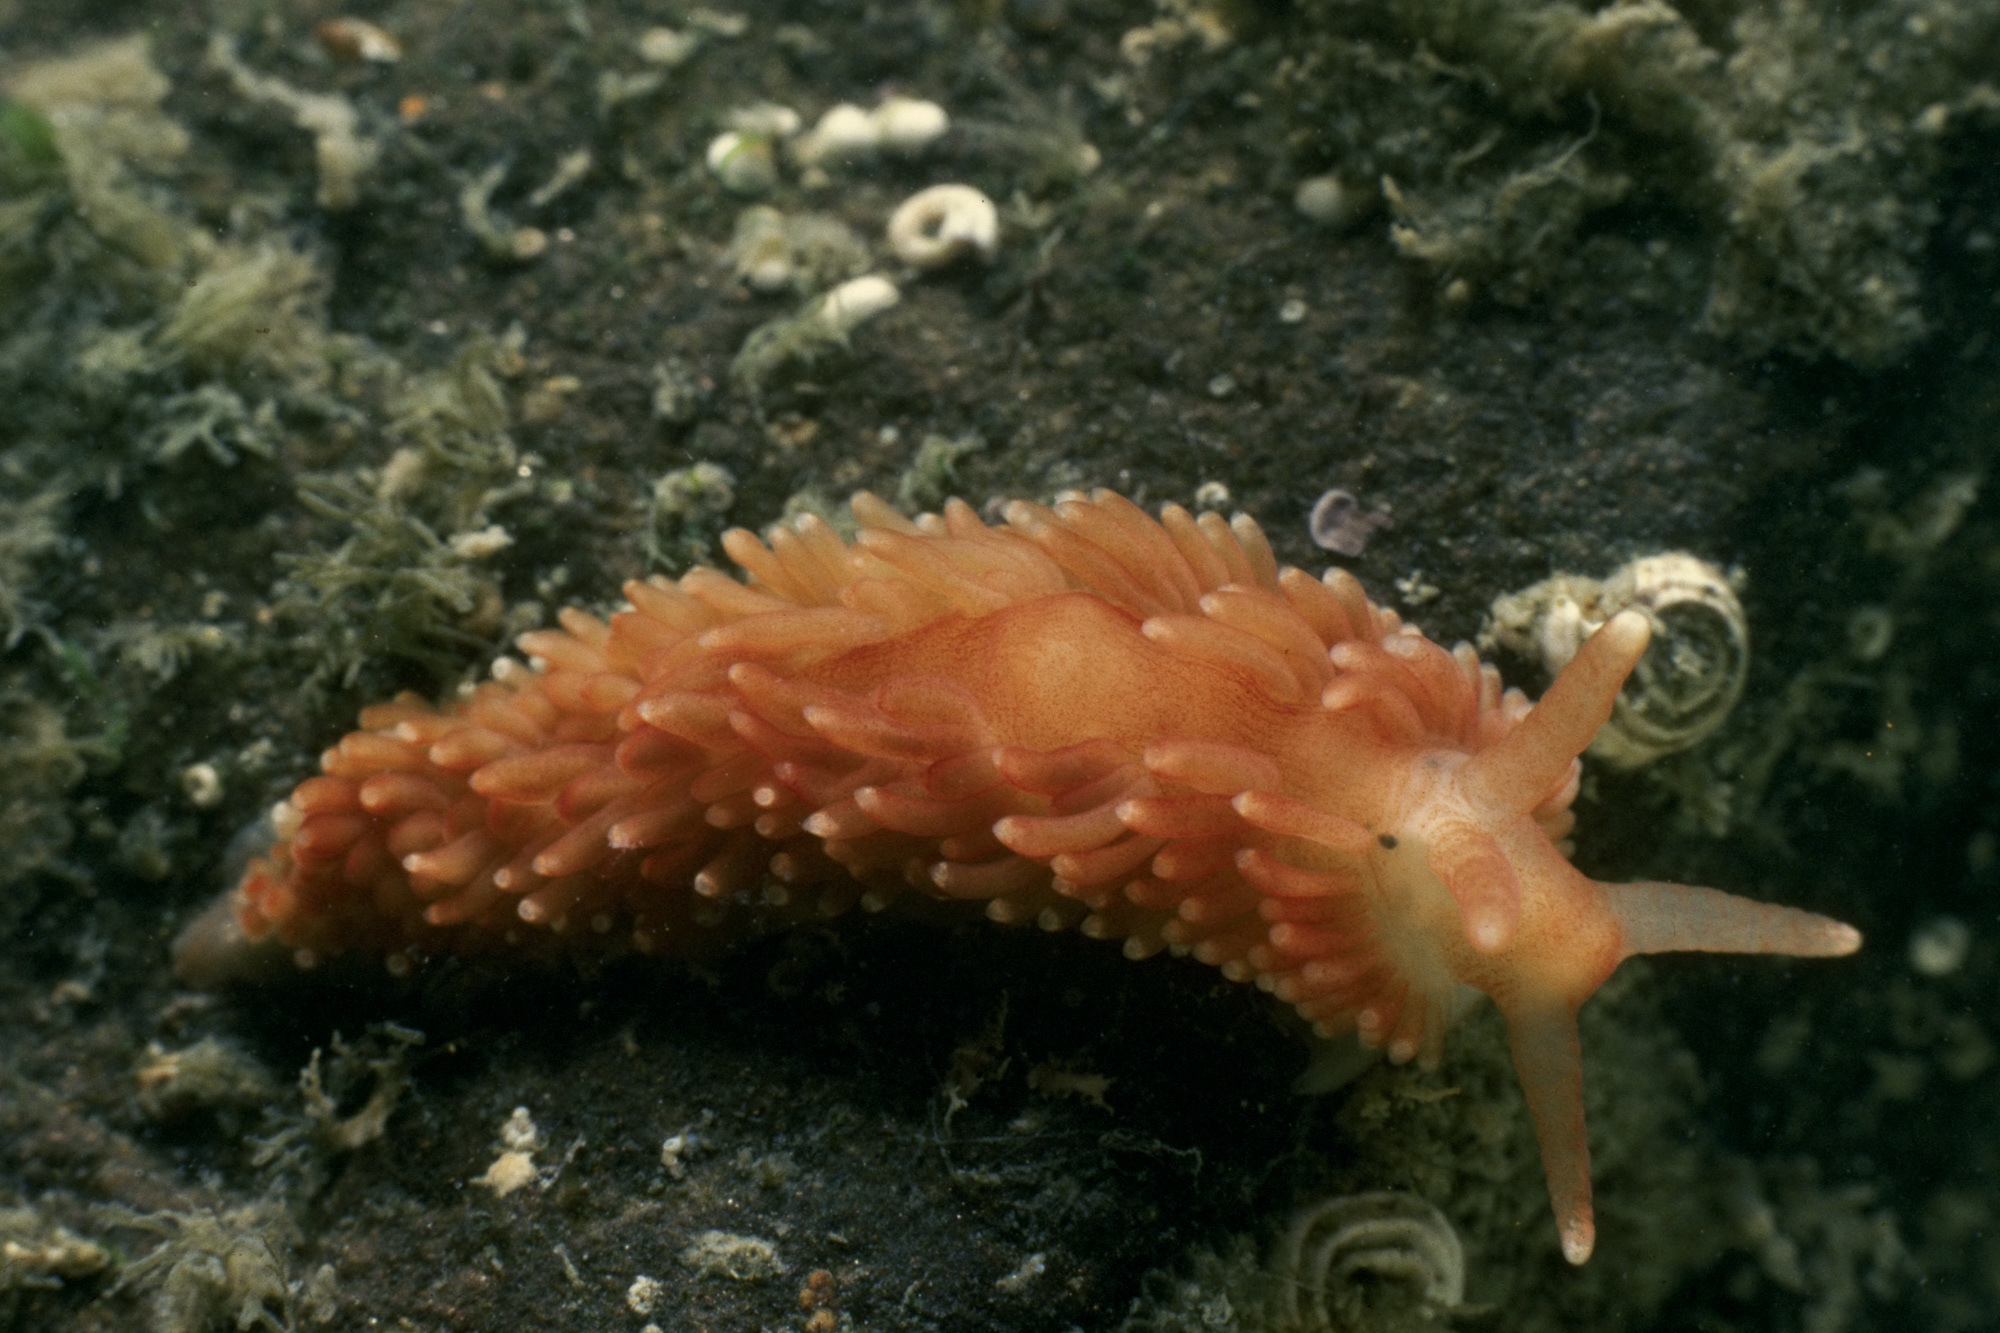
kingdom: Animalia
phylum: Mollusca
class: Gastropoda
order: Nudibranchia
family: Aeolidiidae
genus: Aeolidiella
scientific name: Aeolidiella sanguinea
